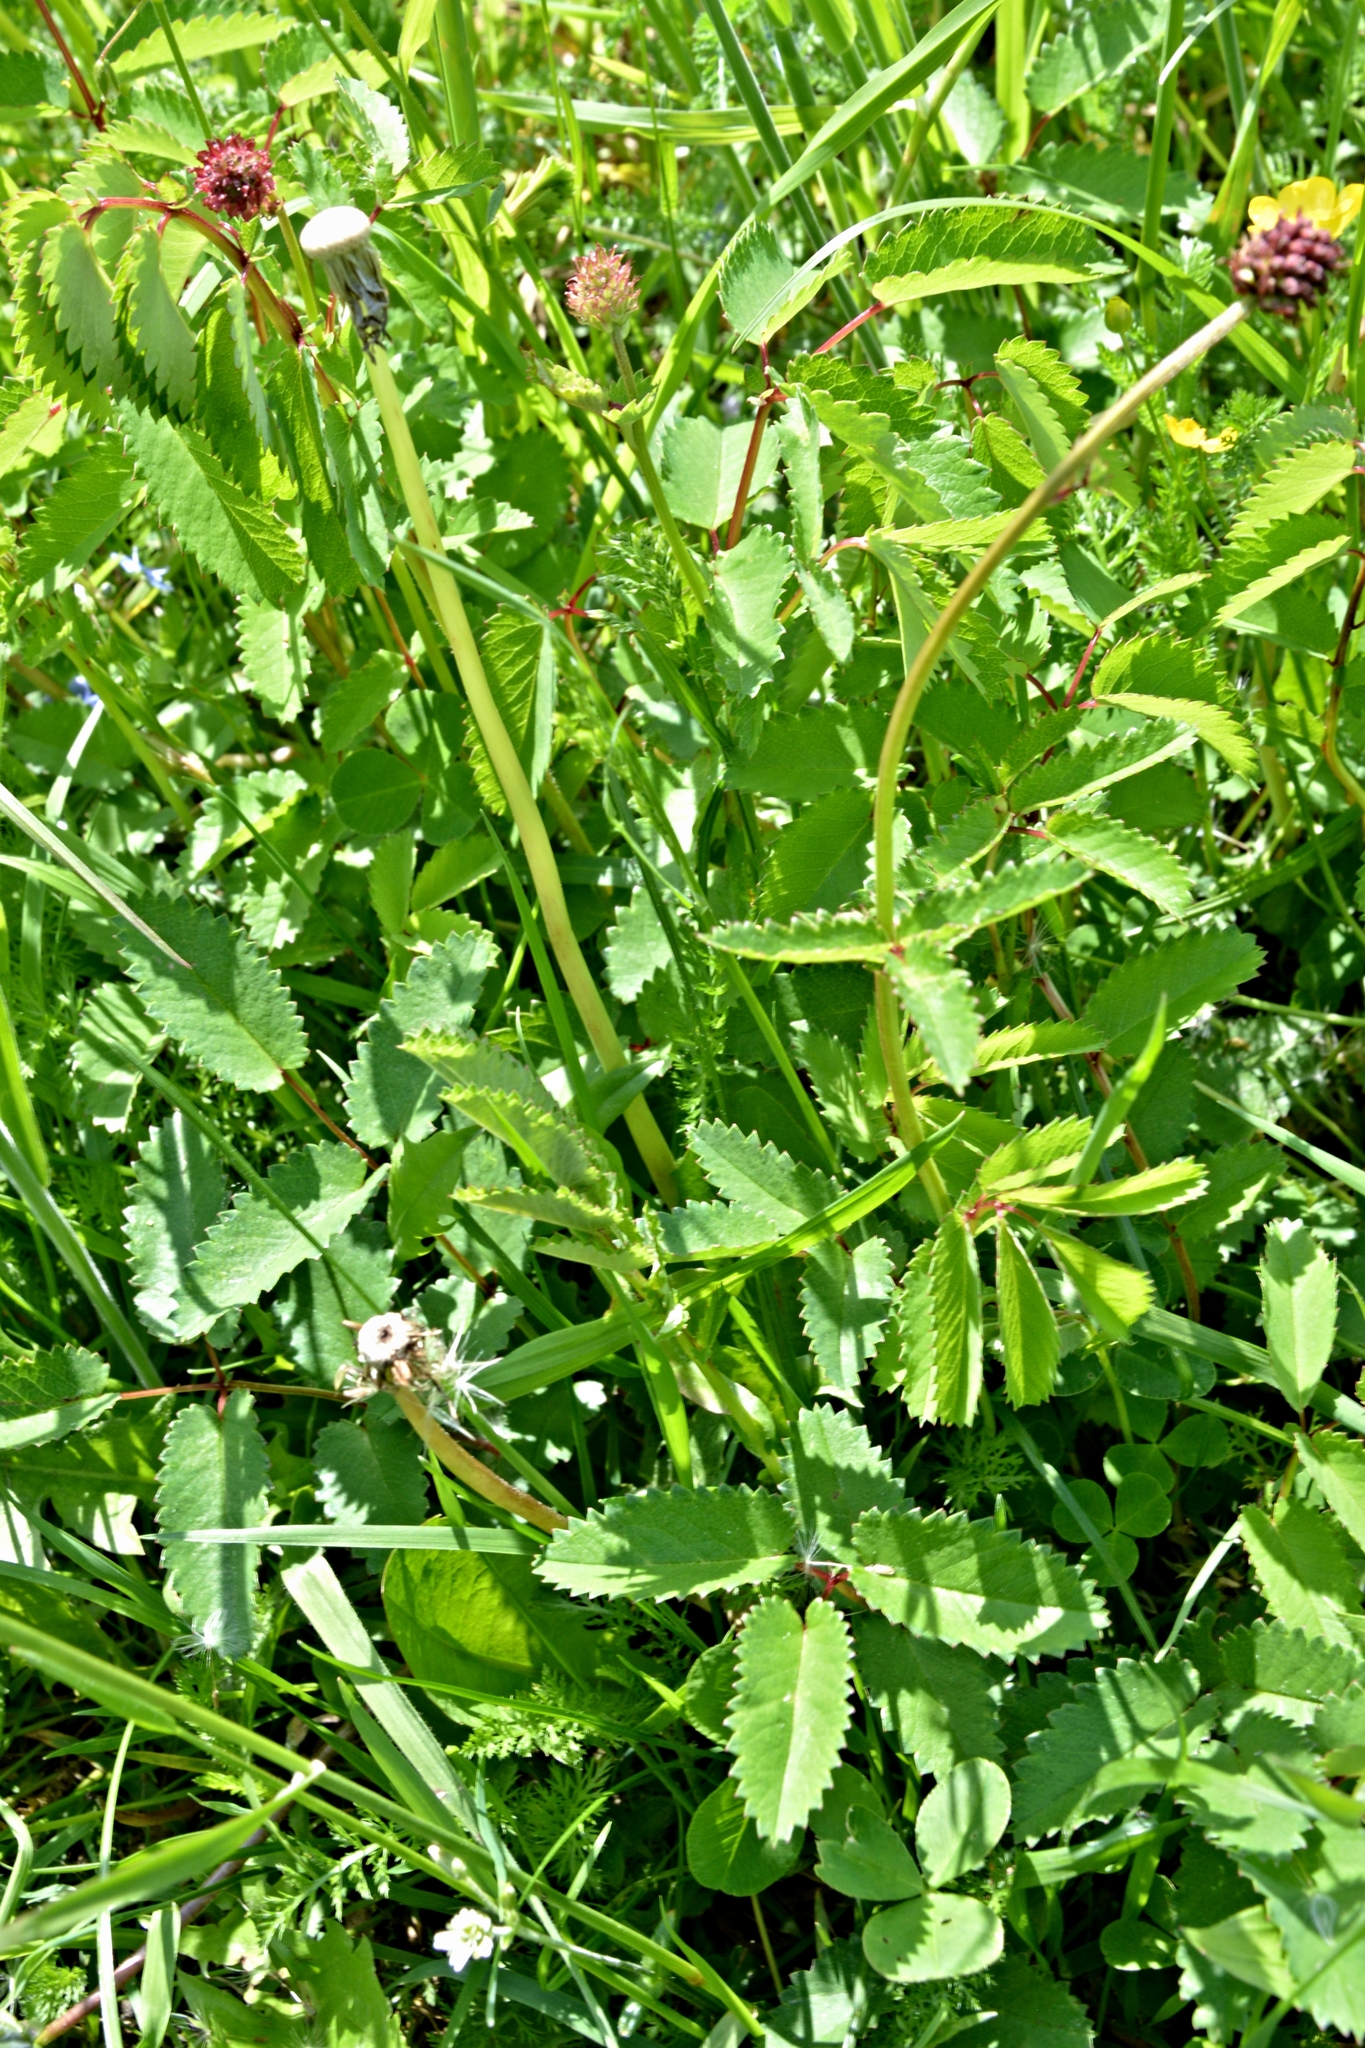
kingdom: Plantae
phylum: Tracheophyta
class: Magnoliopsida
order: Rosales
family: Rosaceae
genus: Sanguisorba
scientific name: Sanguisorba officinalis
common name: Great burnet
